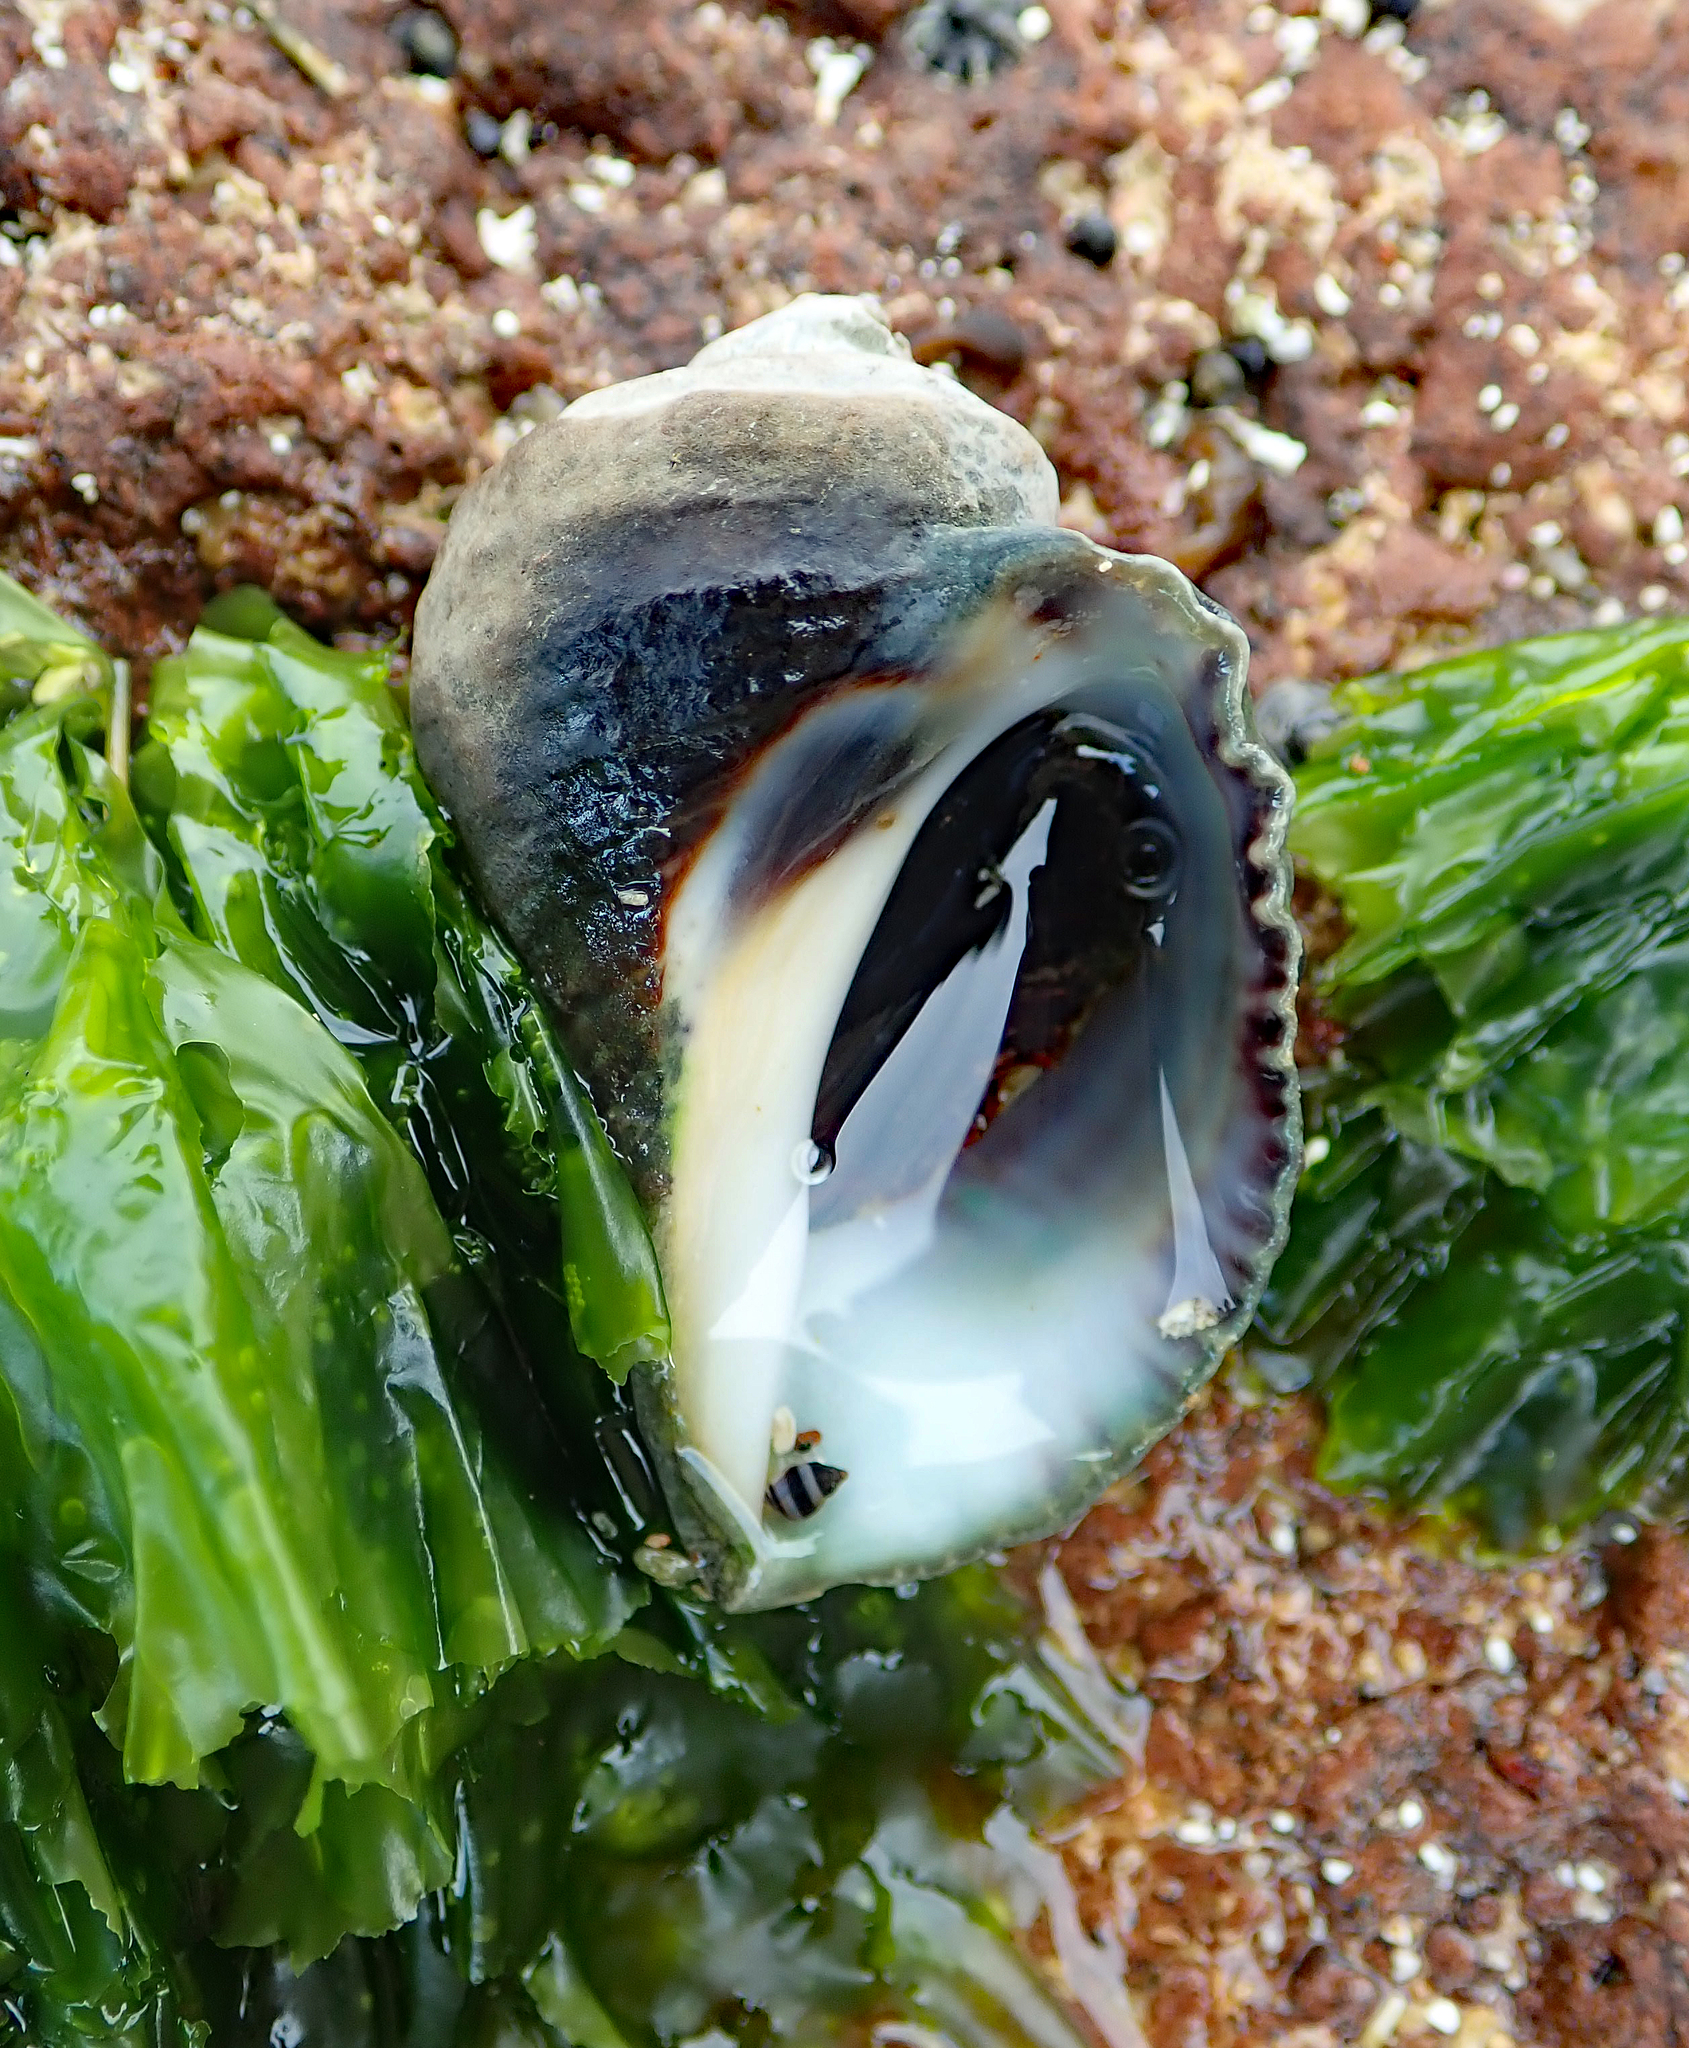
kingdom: Animalia
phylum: Mollusca
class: Gastropoda
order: Neogastropoda
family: Muricidae
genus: Haustrum
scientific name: Haustrum haustorium
